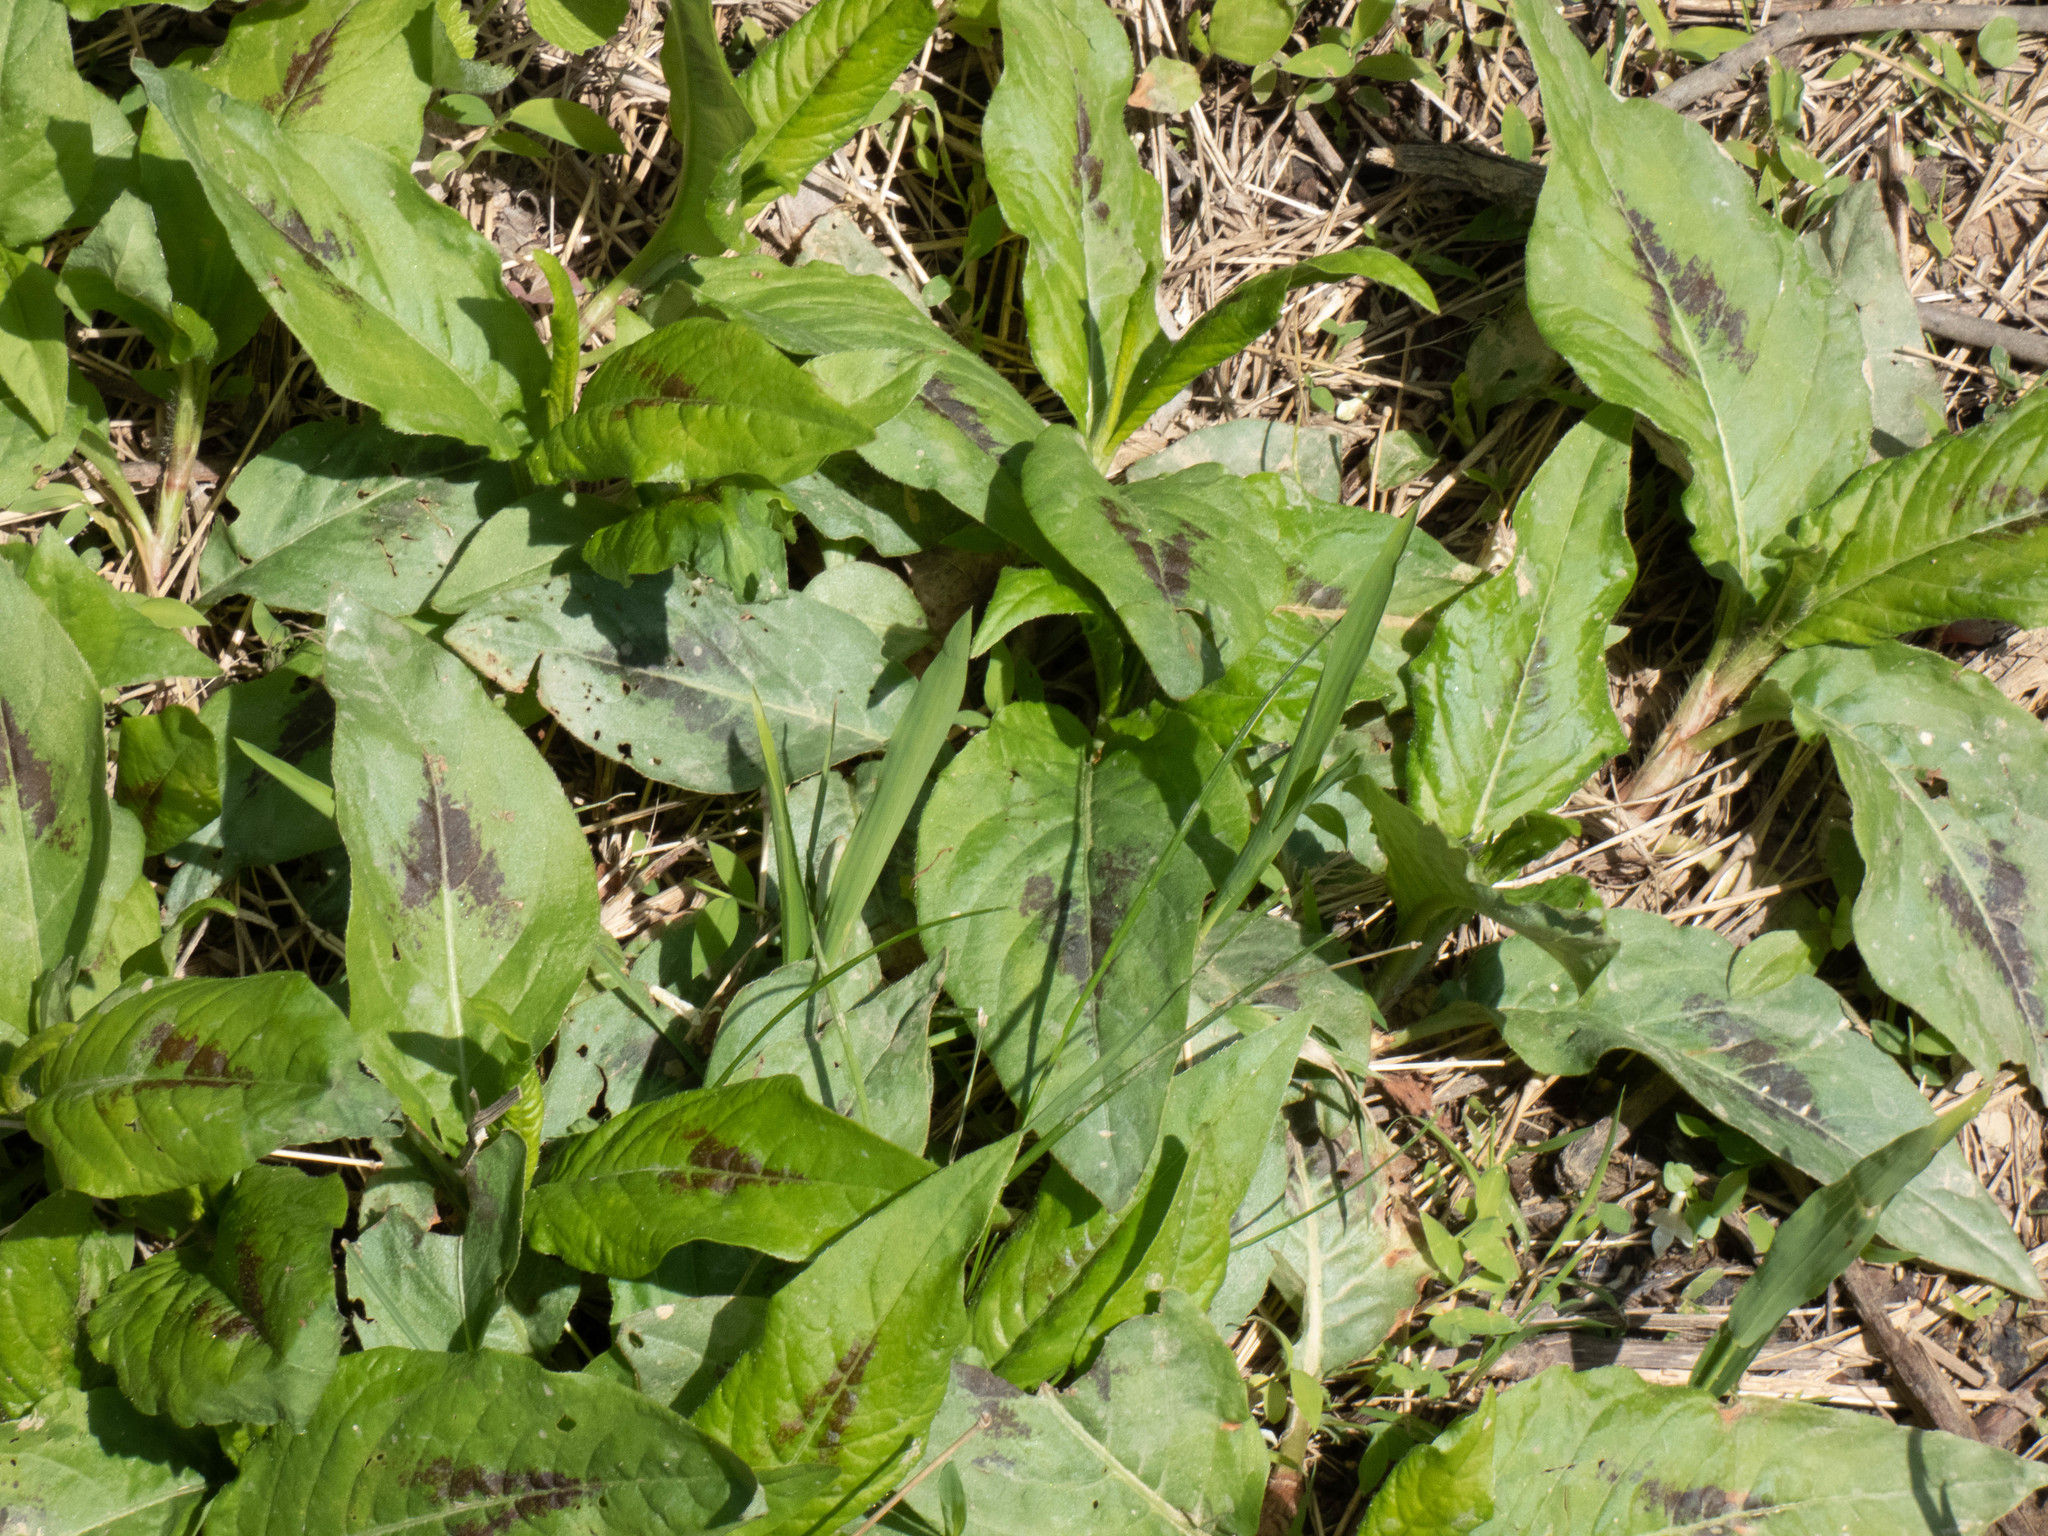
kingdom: Plantae
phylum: Tracheophyta
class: Magnoliopsida
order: Caryophyllales
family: Polygonaceae
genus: Persicaria
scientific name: Persicaria virginiana
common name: Jumpseed
